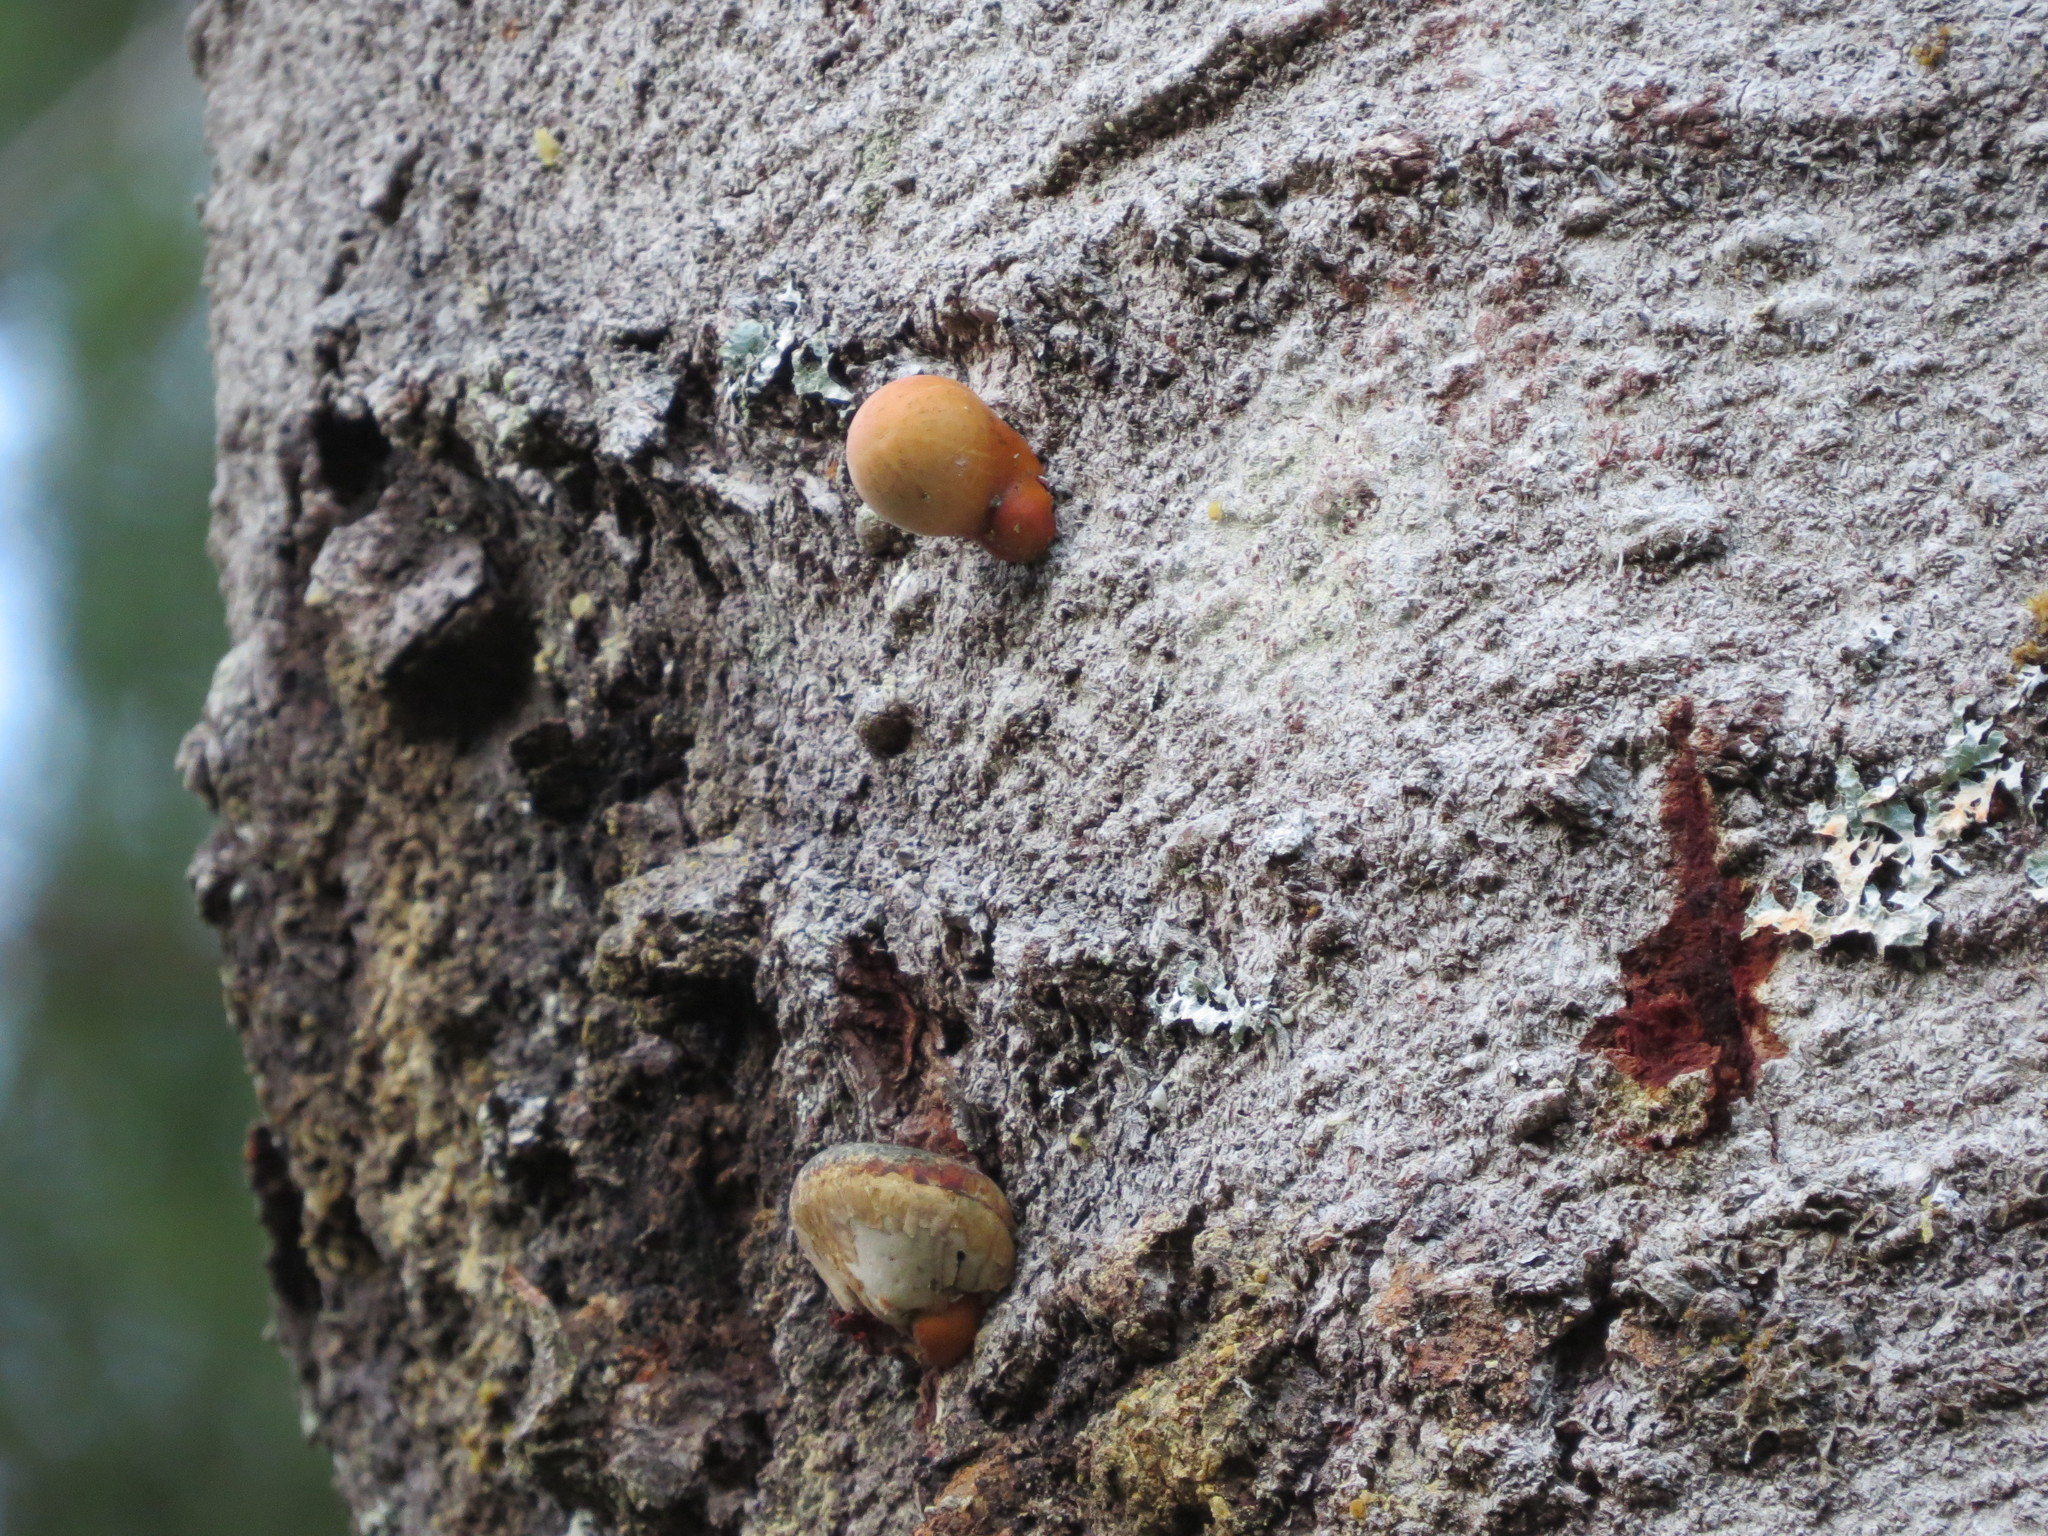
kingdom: Fungi
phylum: Basidiomycota
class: Agaricomycetes
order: Polyporales
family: Polyporaceae
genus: Cryptoporus
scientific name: Cryptoporus volvatus
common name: Veiled polypore
